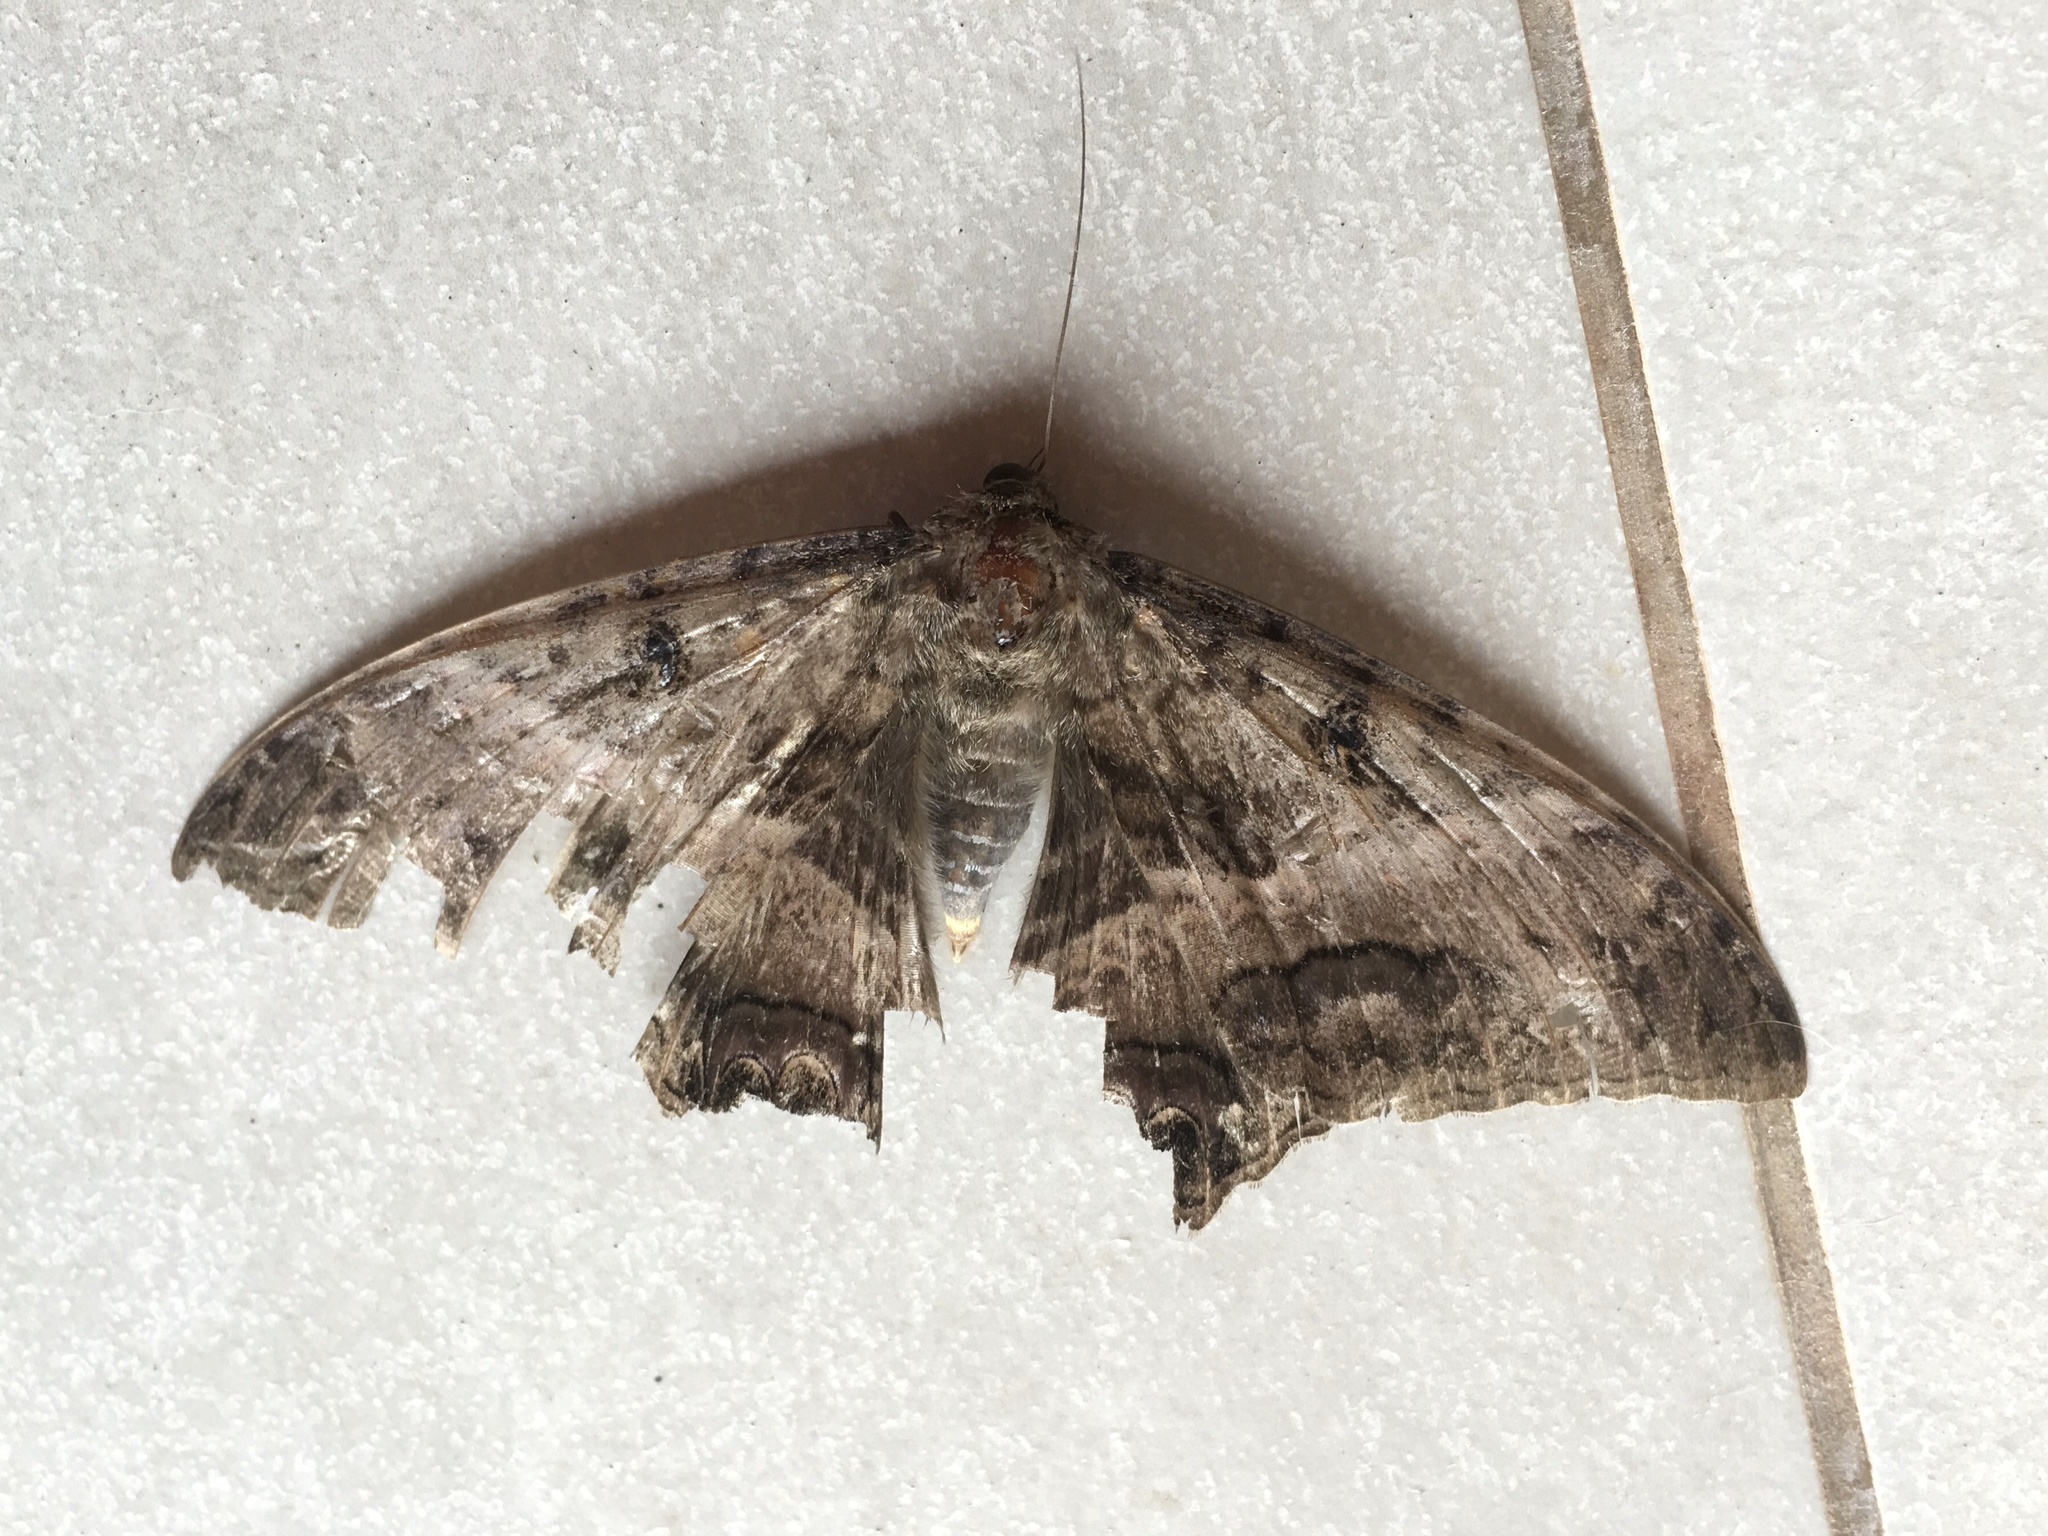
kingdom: Animalia
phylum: Arthropoda
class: Insecta
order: Lepidoptera
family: Erebidae
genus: Ascalapha
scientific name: Ascalapha odorata
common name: Black witch
